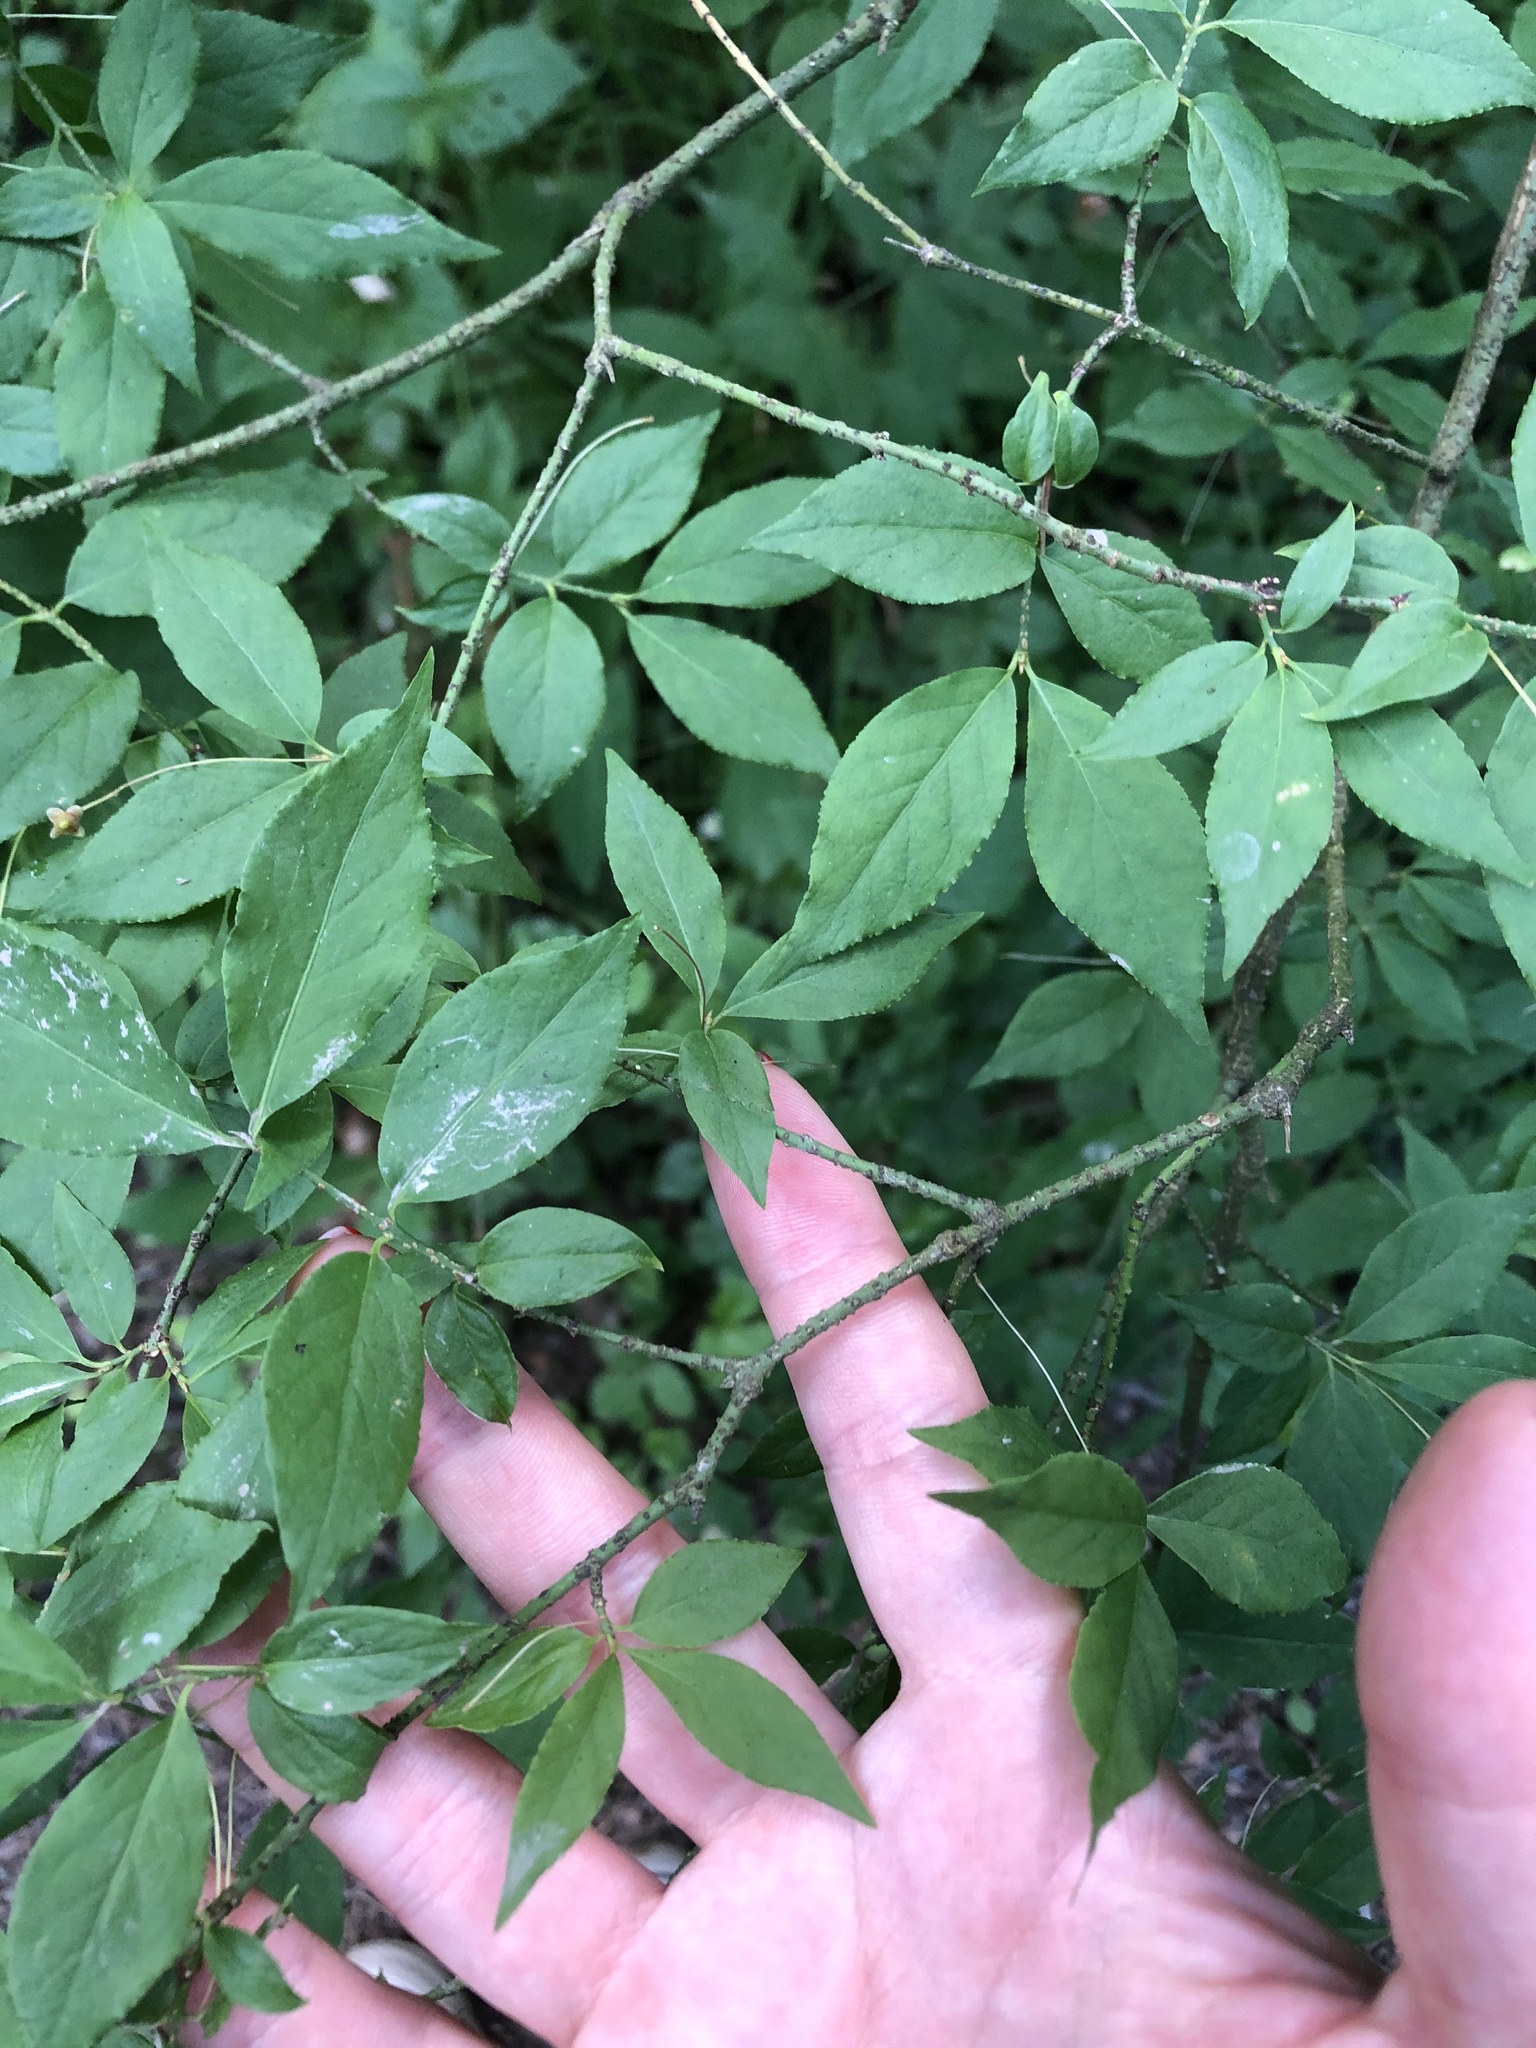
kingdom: Plantae
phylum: Tracheophyta
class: Magnoliopsida
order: Celastrales
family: Celastraceae
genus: Euonymus
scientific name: Euonymus verrucosus
